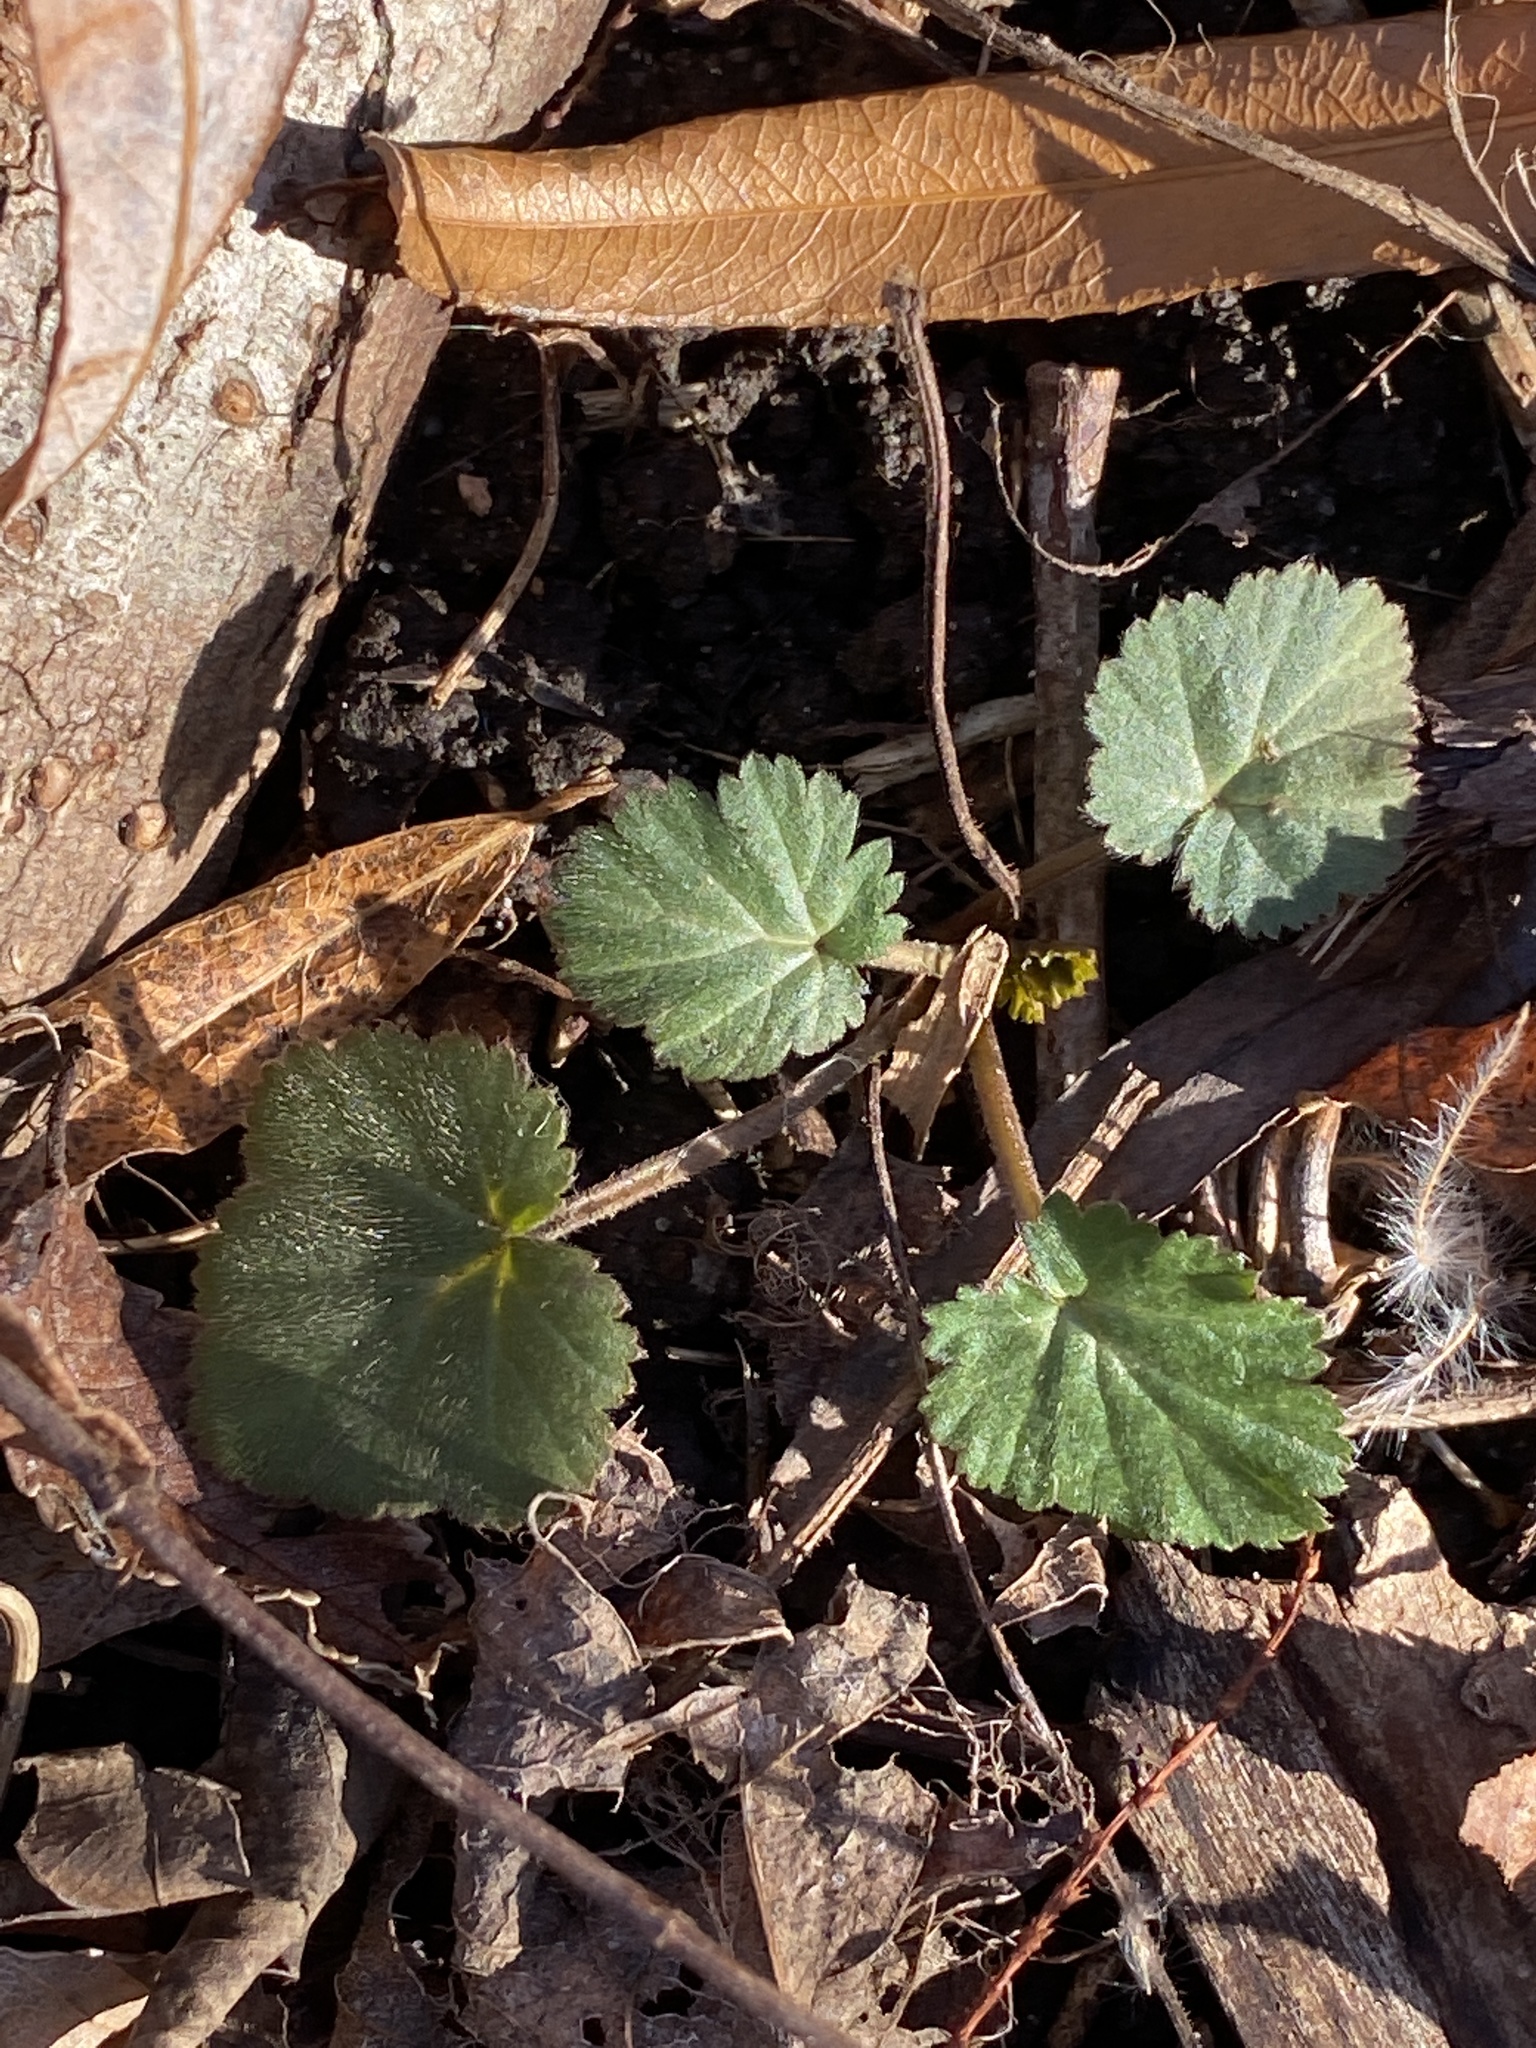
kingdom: Plantae
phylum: Tracheophyta
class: Magnoliopsida
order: Rosales
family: Rosaceae
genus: Geum
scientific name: Geum canadense
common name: White avens
